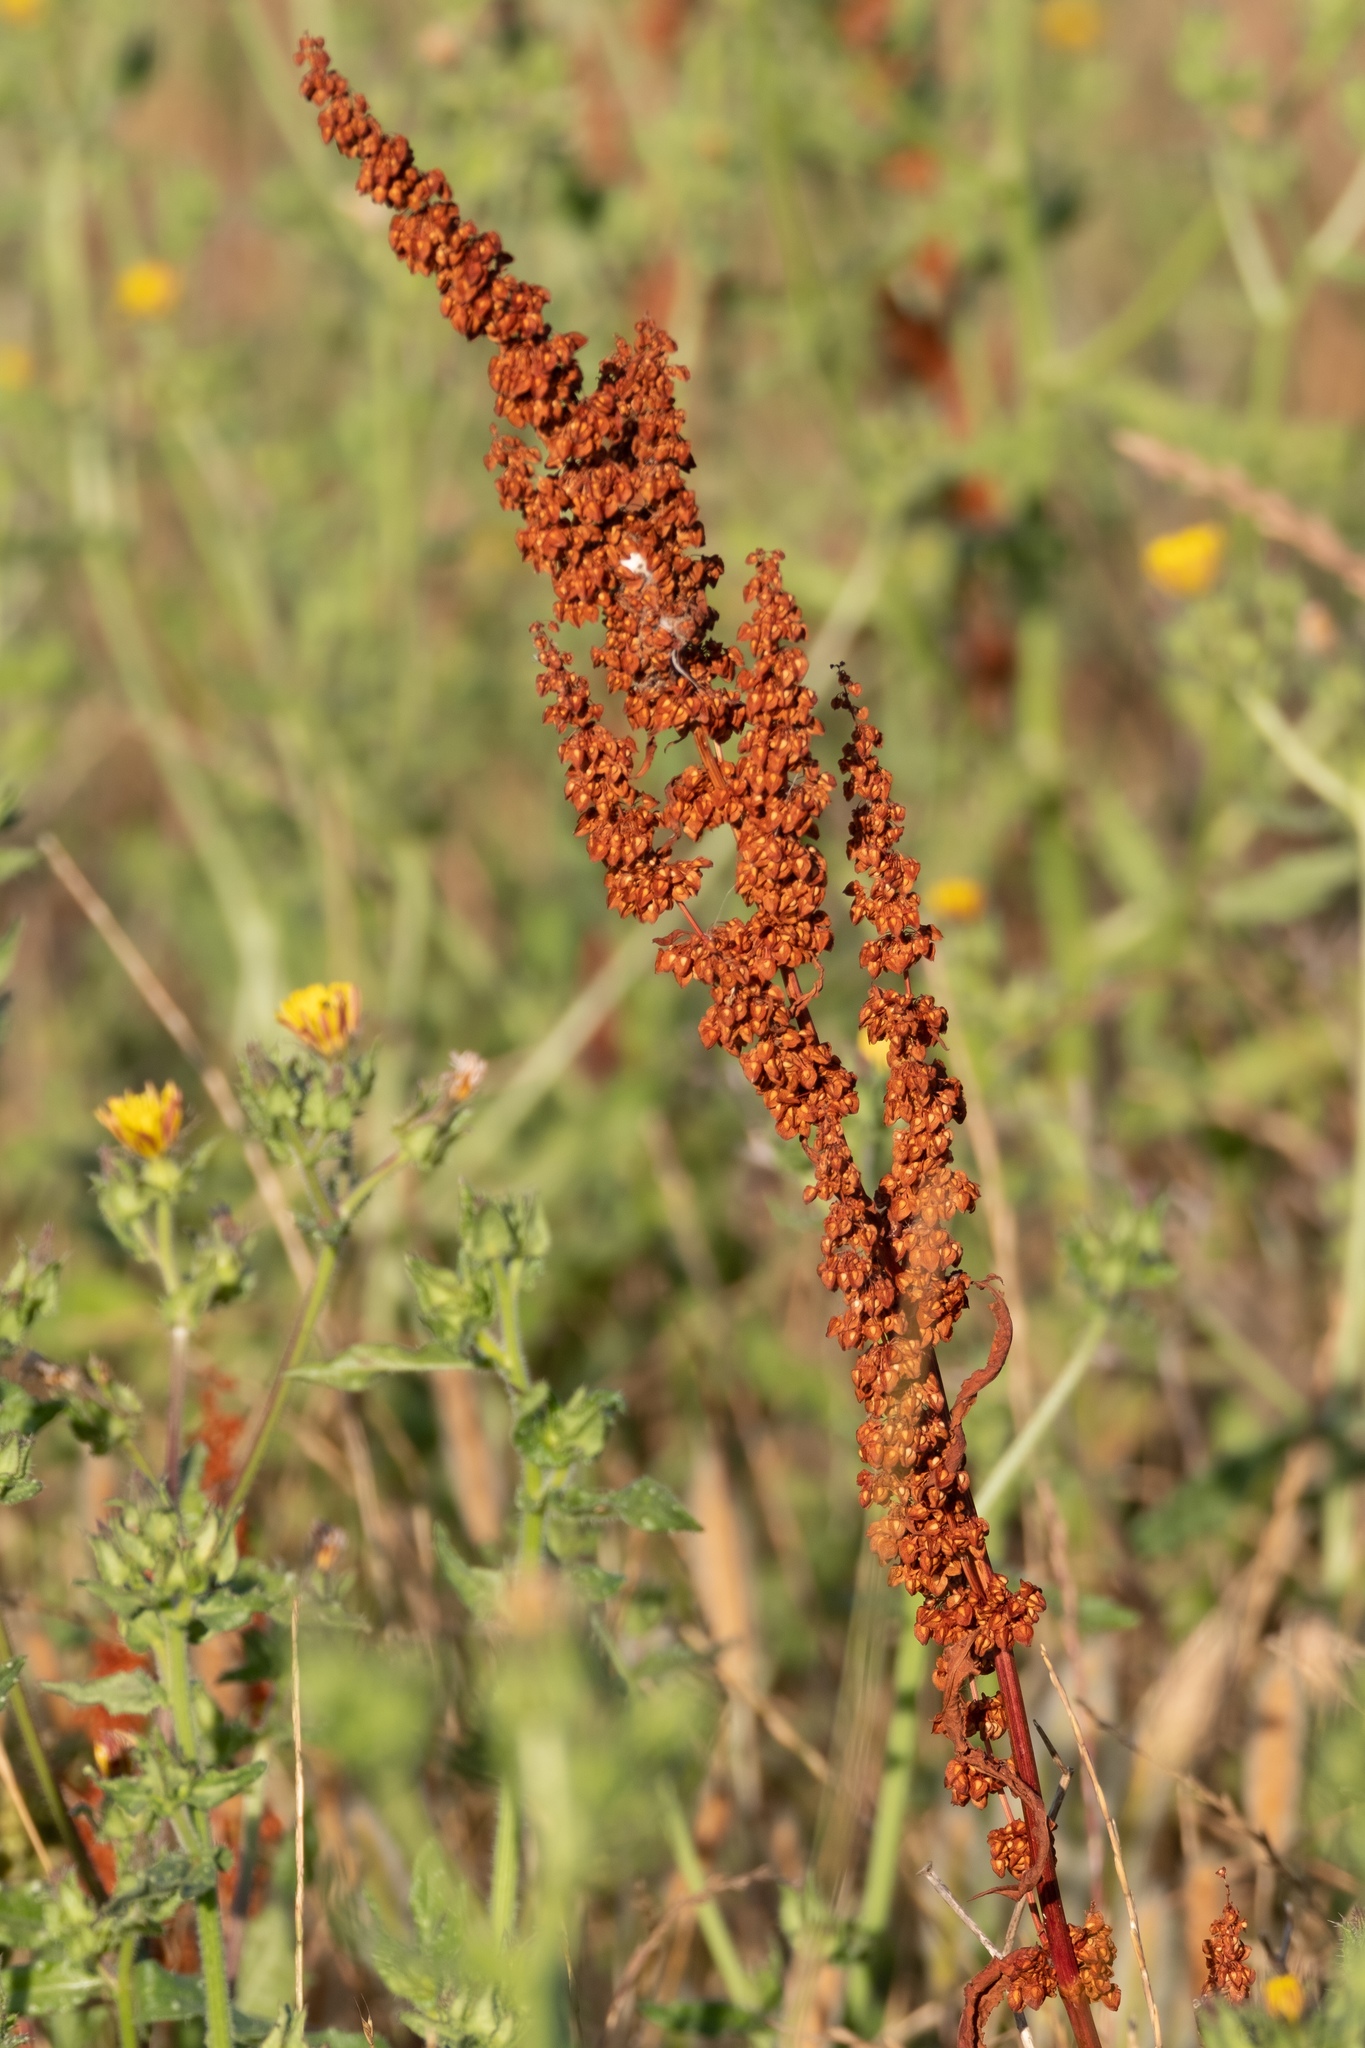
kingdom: Plantae
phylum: Tracheophyta
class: Magnoliopsida
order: Caryophyllales
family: Polygonaceae
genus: Rumex
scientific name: Rumex crispus
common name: Curled dock
